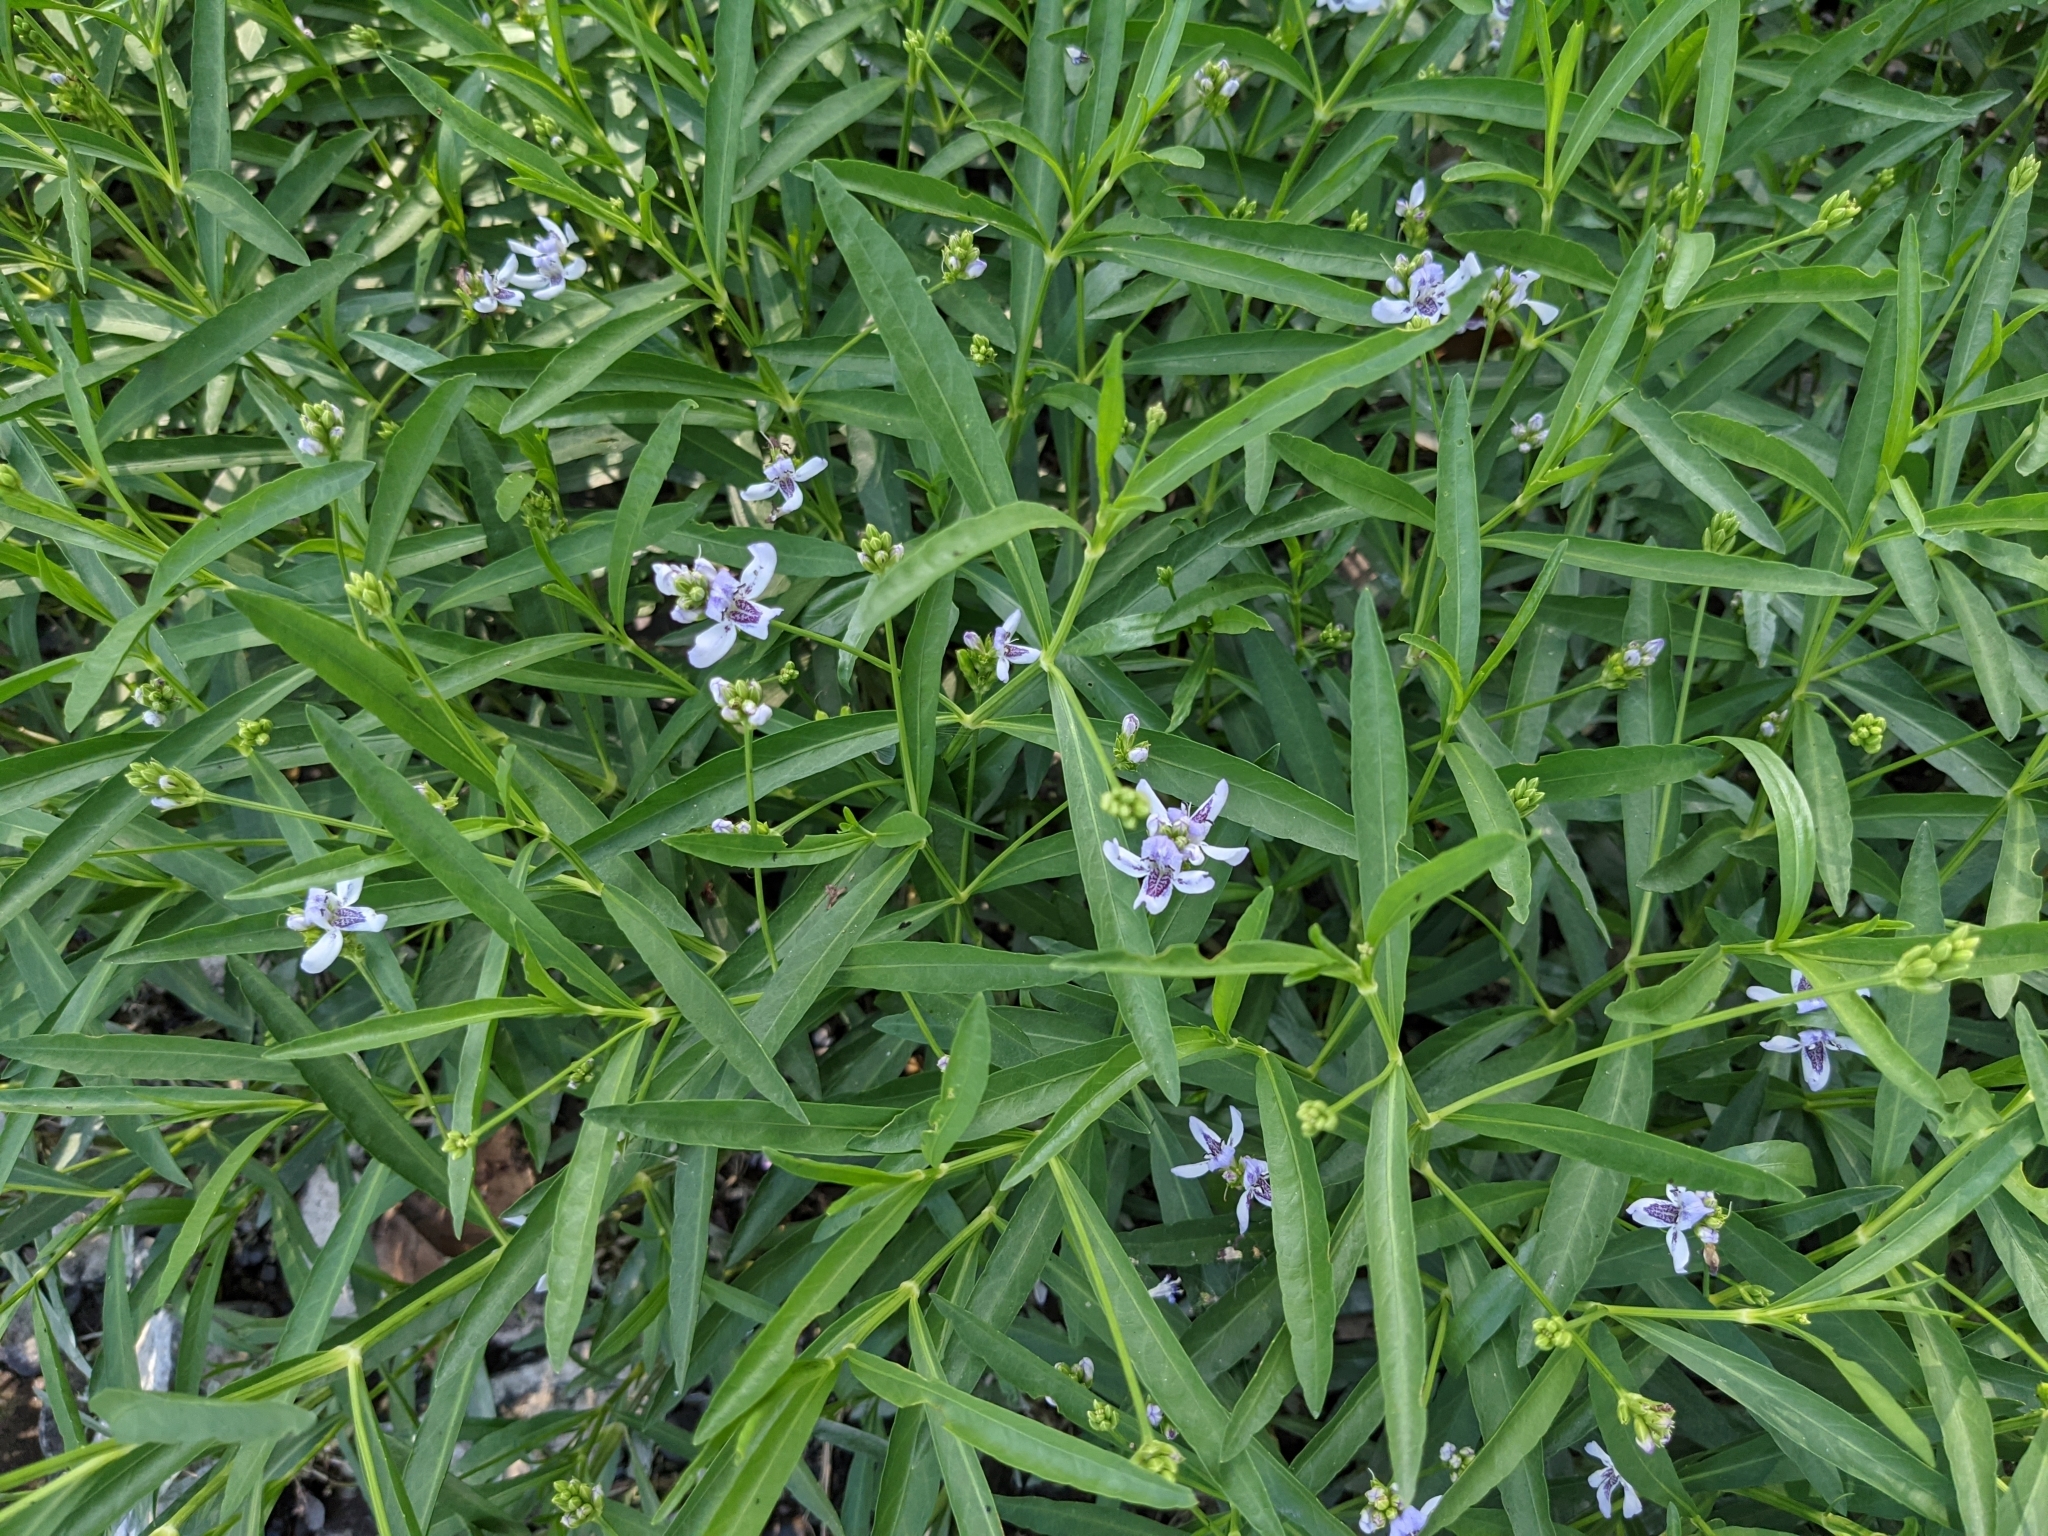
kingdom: Plantae
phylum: Tracheophyta
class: Magnoliopsida
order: Lamiales
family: Acanthaceae
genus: Dianthera
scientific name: Dianthera americana
